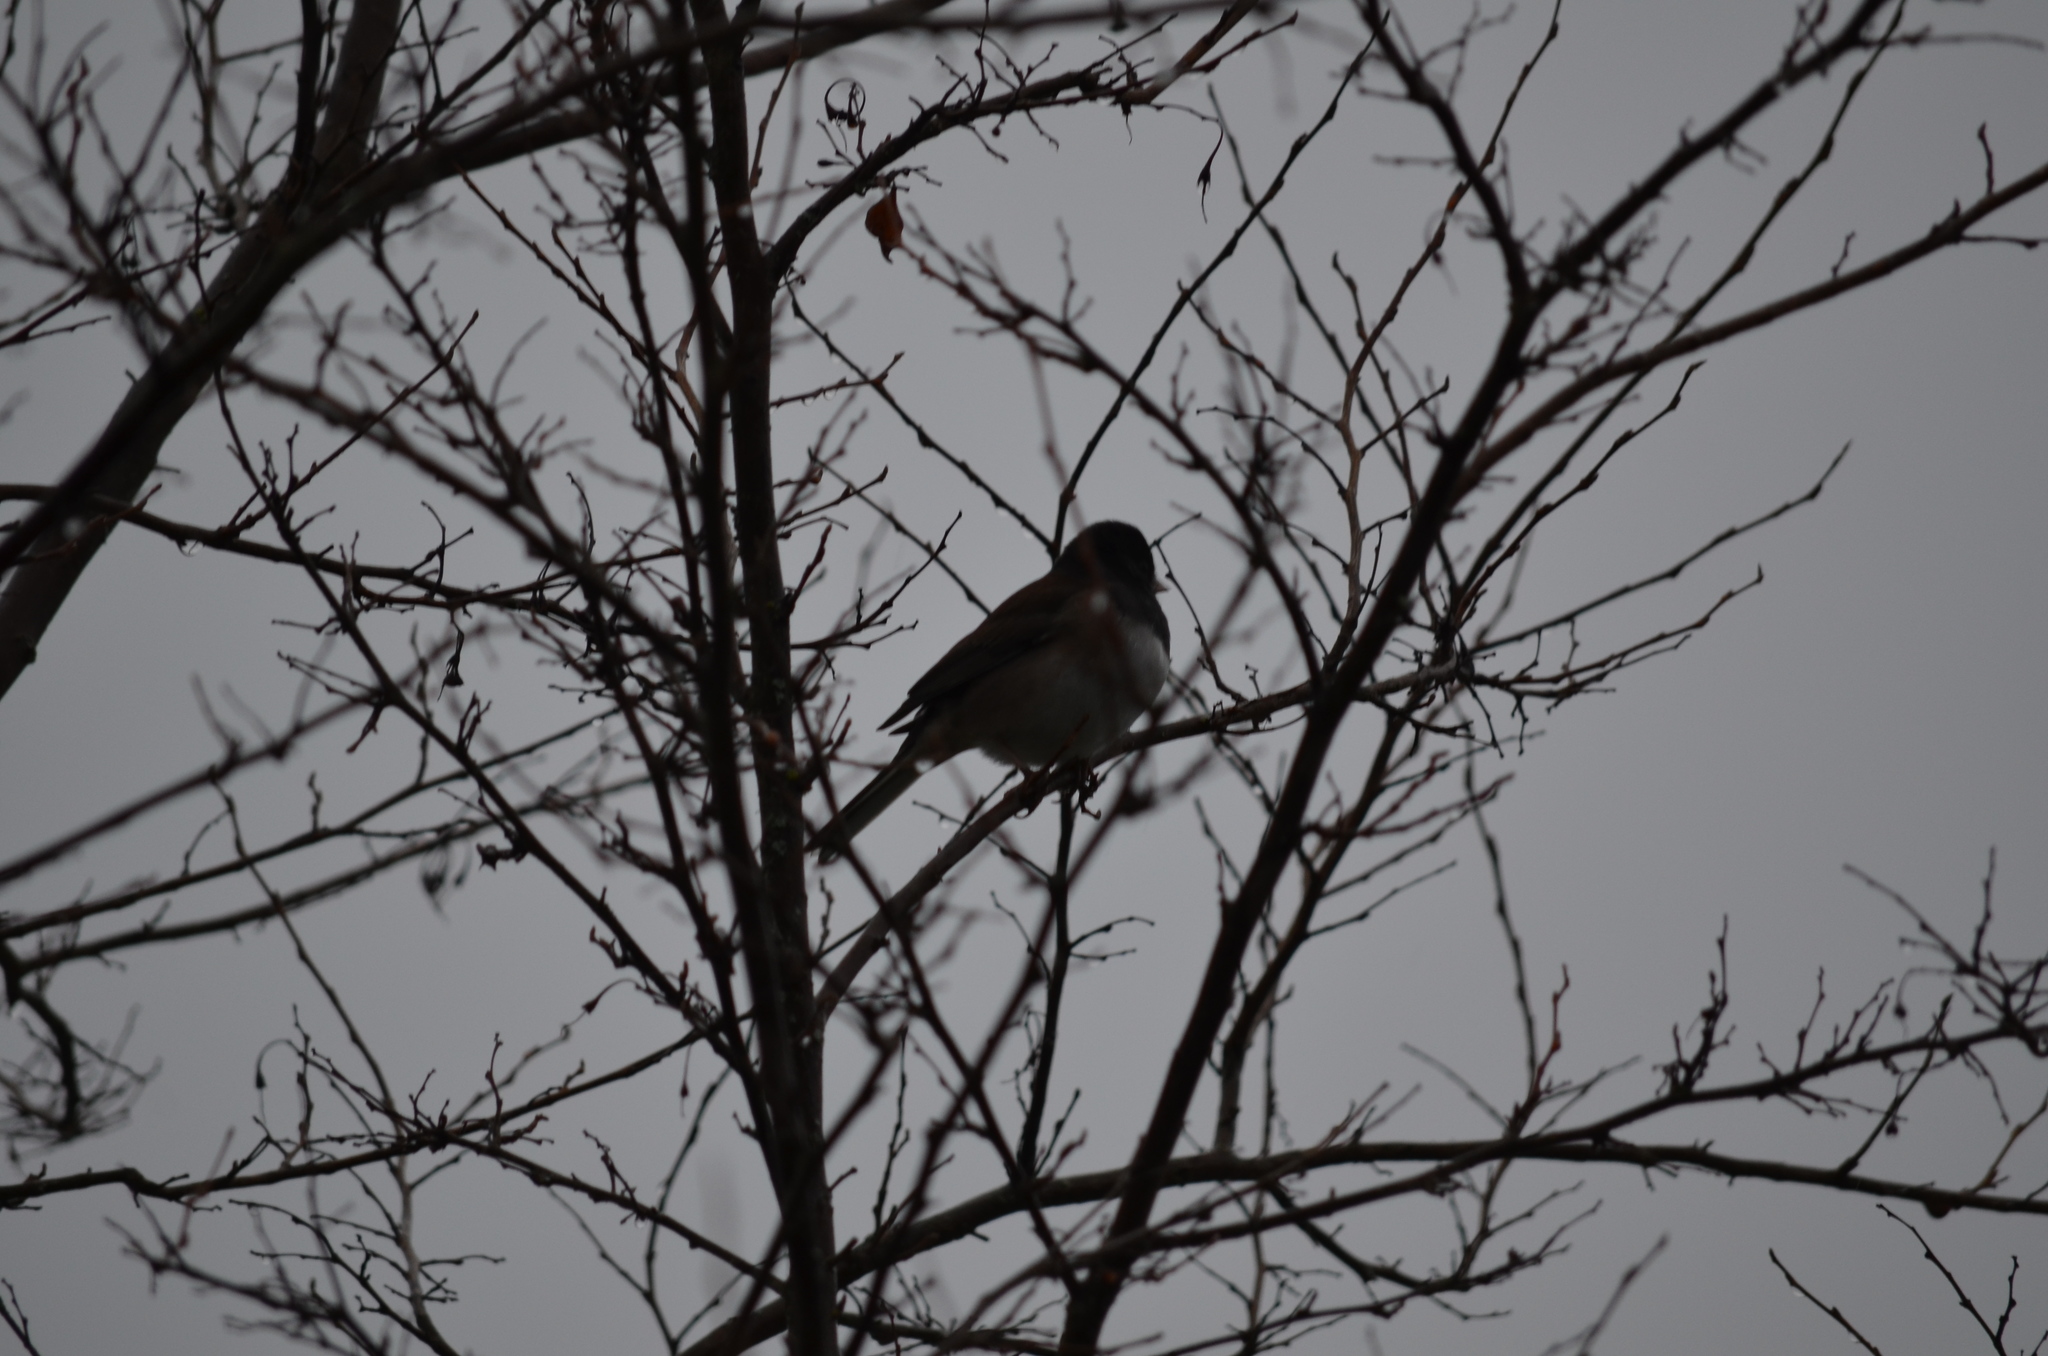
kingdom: Animalia
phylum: Chordata
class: Aves
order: Passeriformes
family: Passerellidae
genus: Junco
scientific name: Junco hyemalis
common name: Dark-eyed junco
